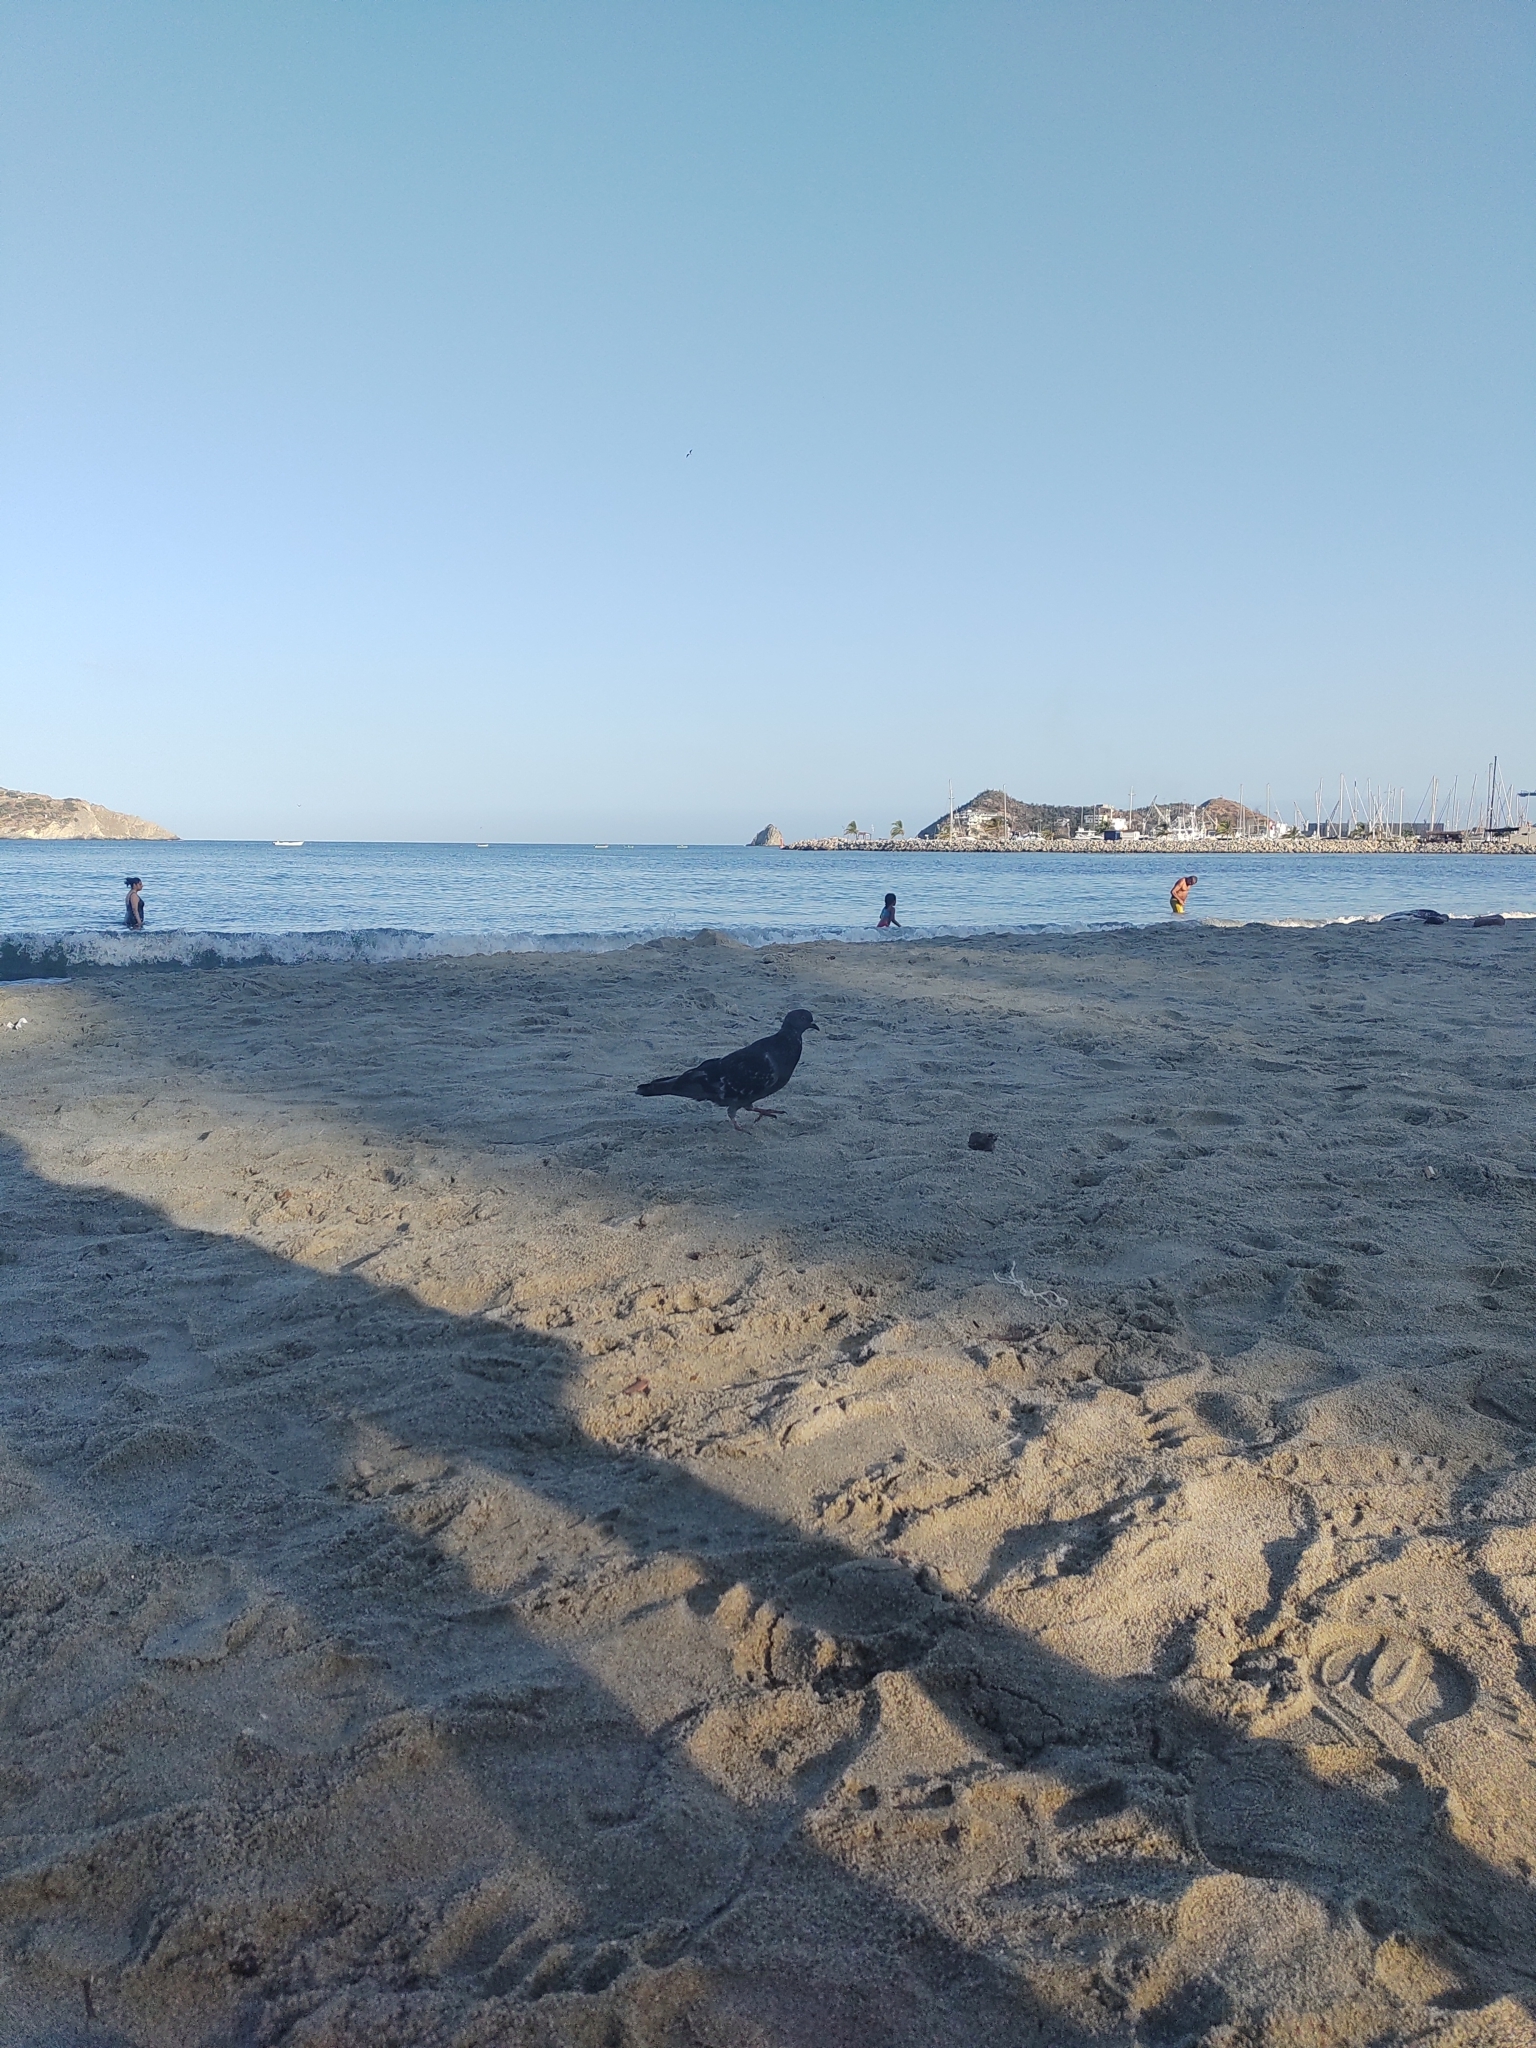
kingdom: Animalia
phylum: Chordata
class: Aves
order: Columbiformes
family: Columbidae
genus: Columba
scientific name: Columba livia
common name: Rock pigeon
